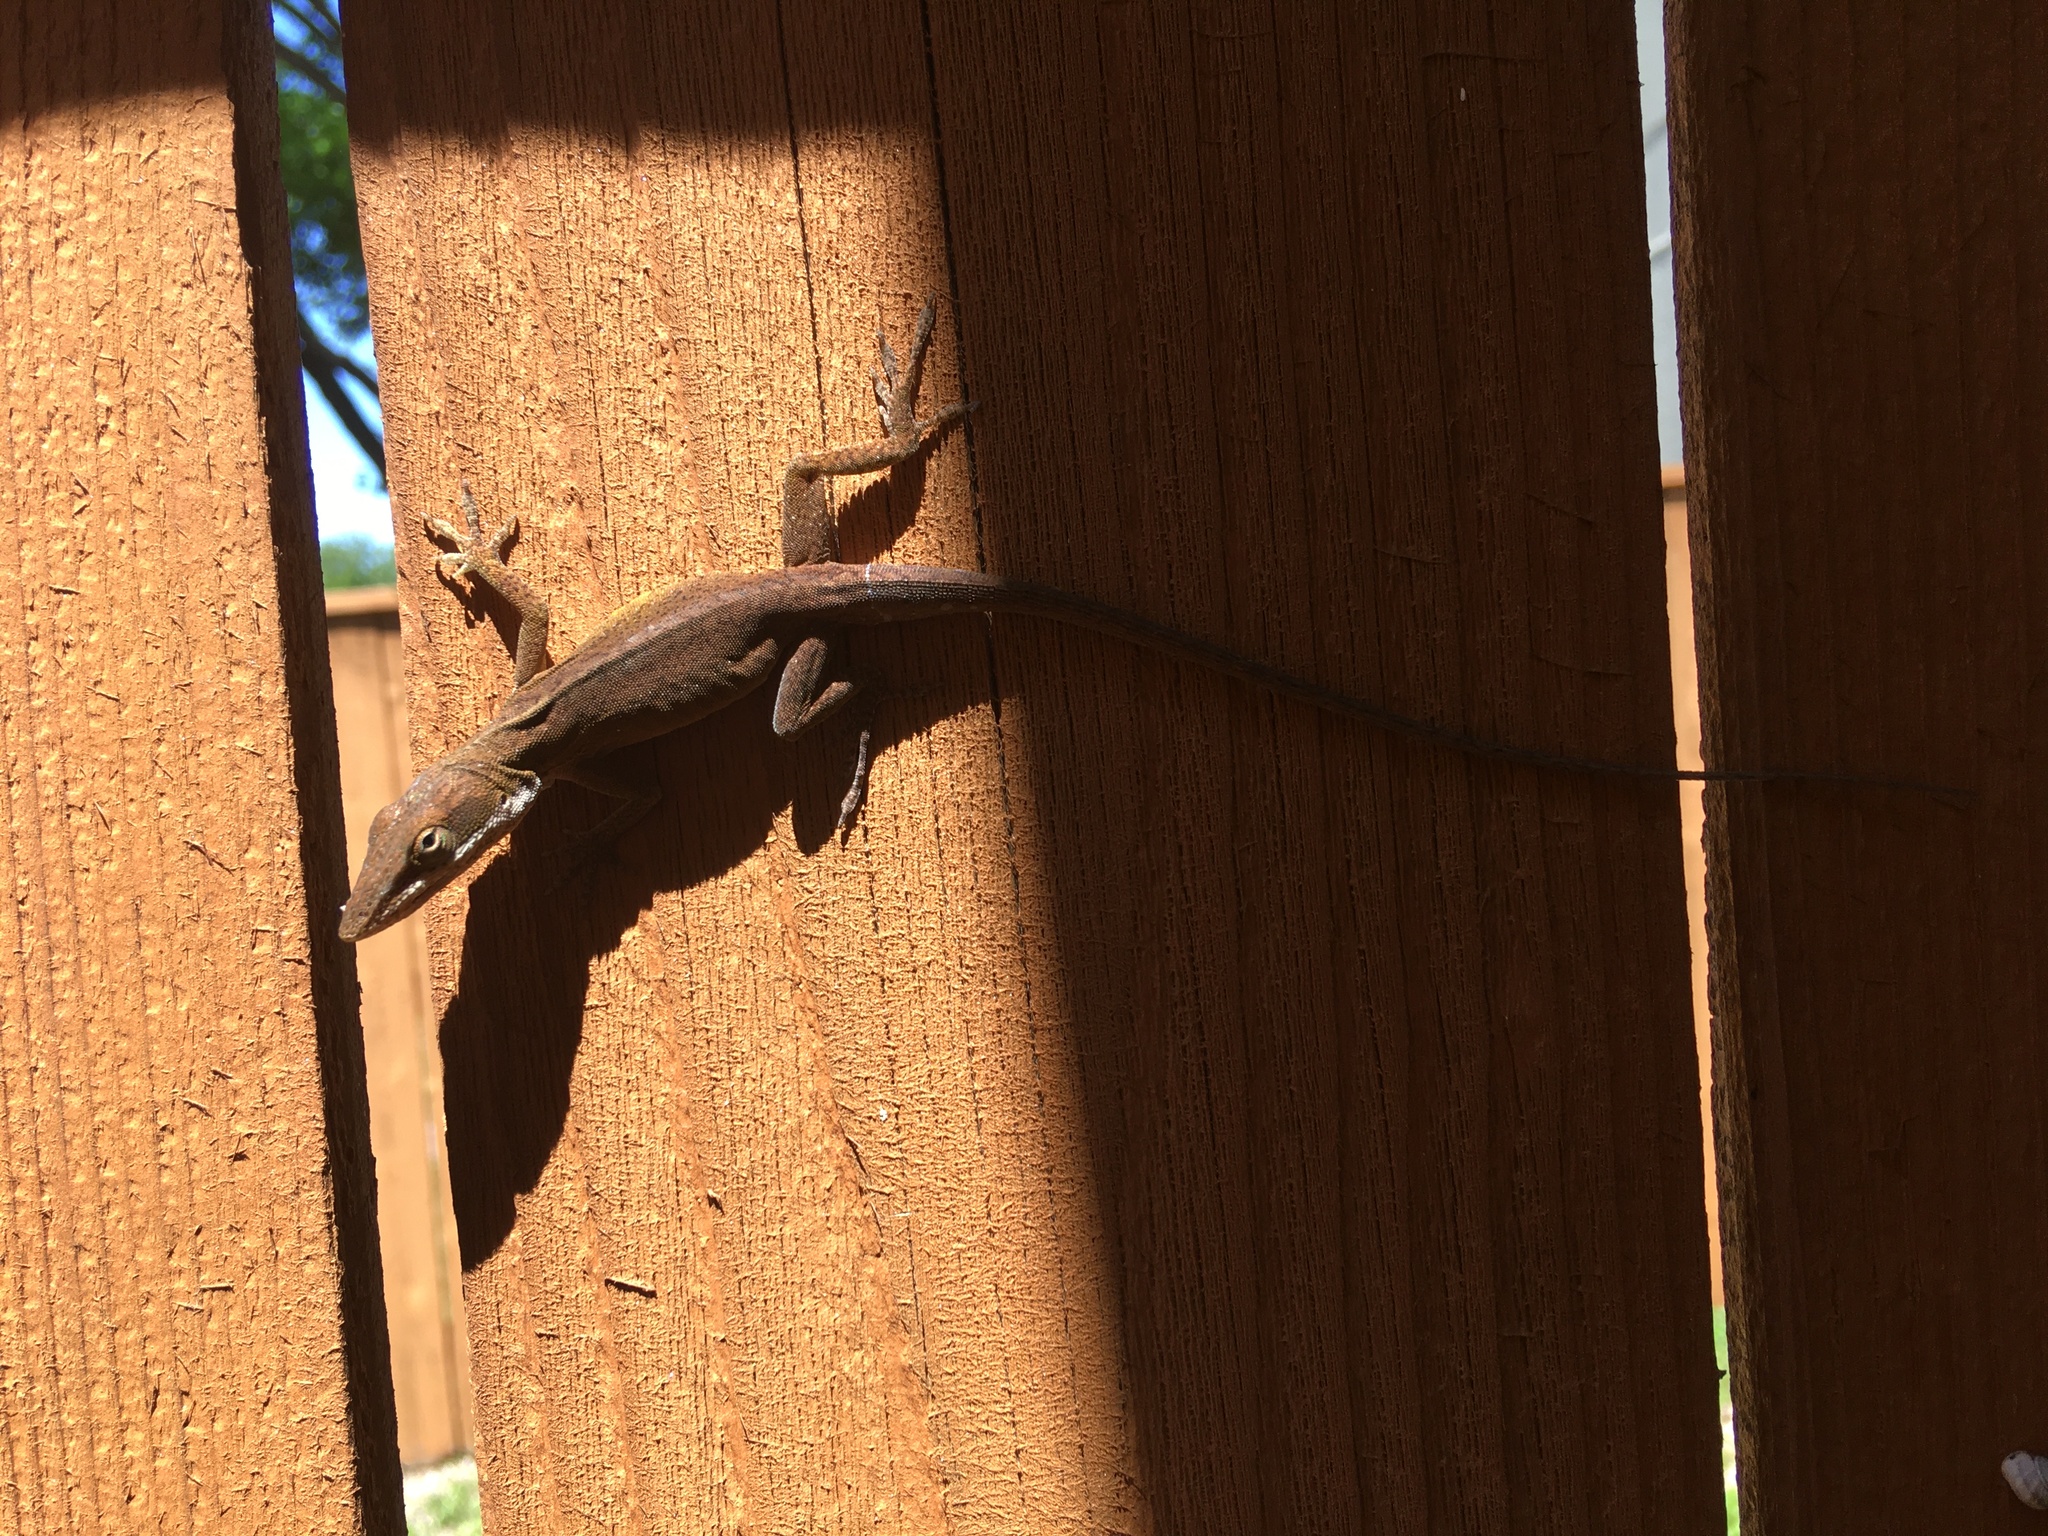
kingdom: Animalia
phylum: Chordata
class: Squamata
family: Dactyloidae
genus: Anolis
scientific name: Anolis carolinensis
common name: Green anole
